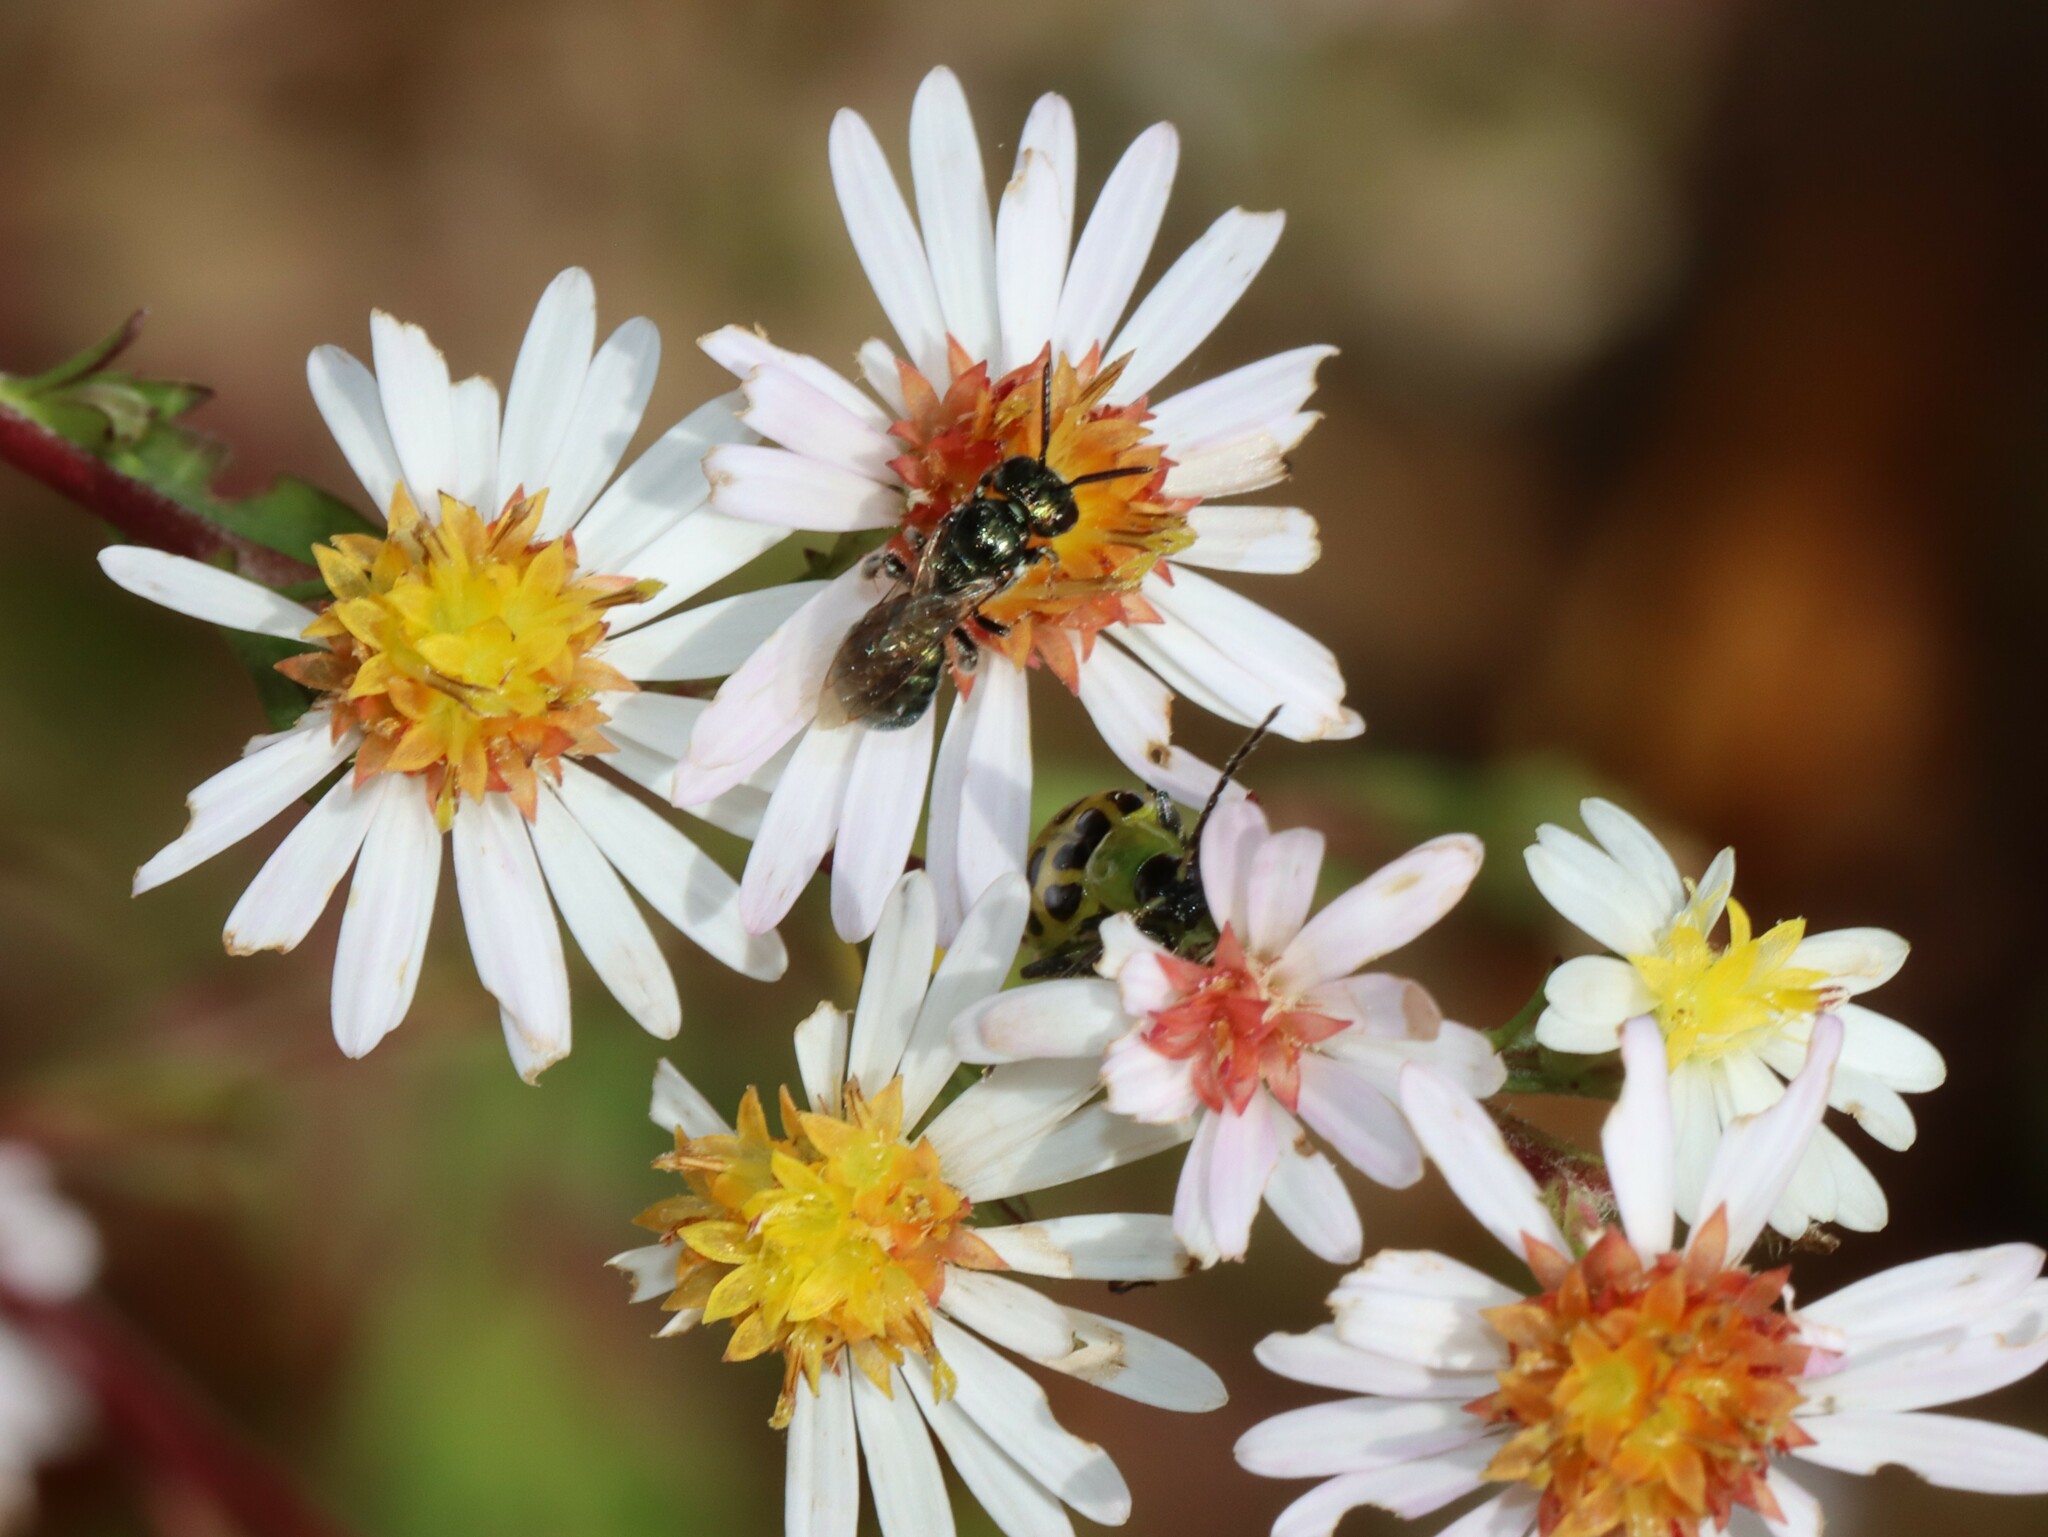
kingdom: Animalia
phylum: Arthropoda
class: Insecta
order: Hymenoptera
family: Apidae
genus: Ceratina
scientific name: Ceratina strenua
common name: Nimble carpenter bee
